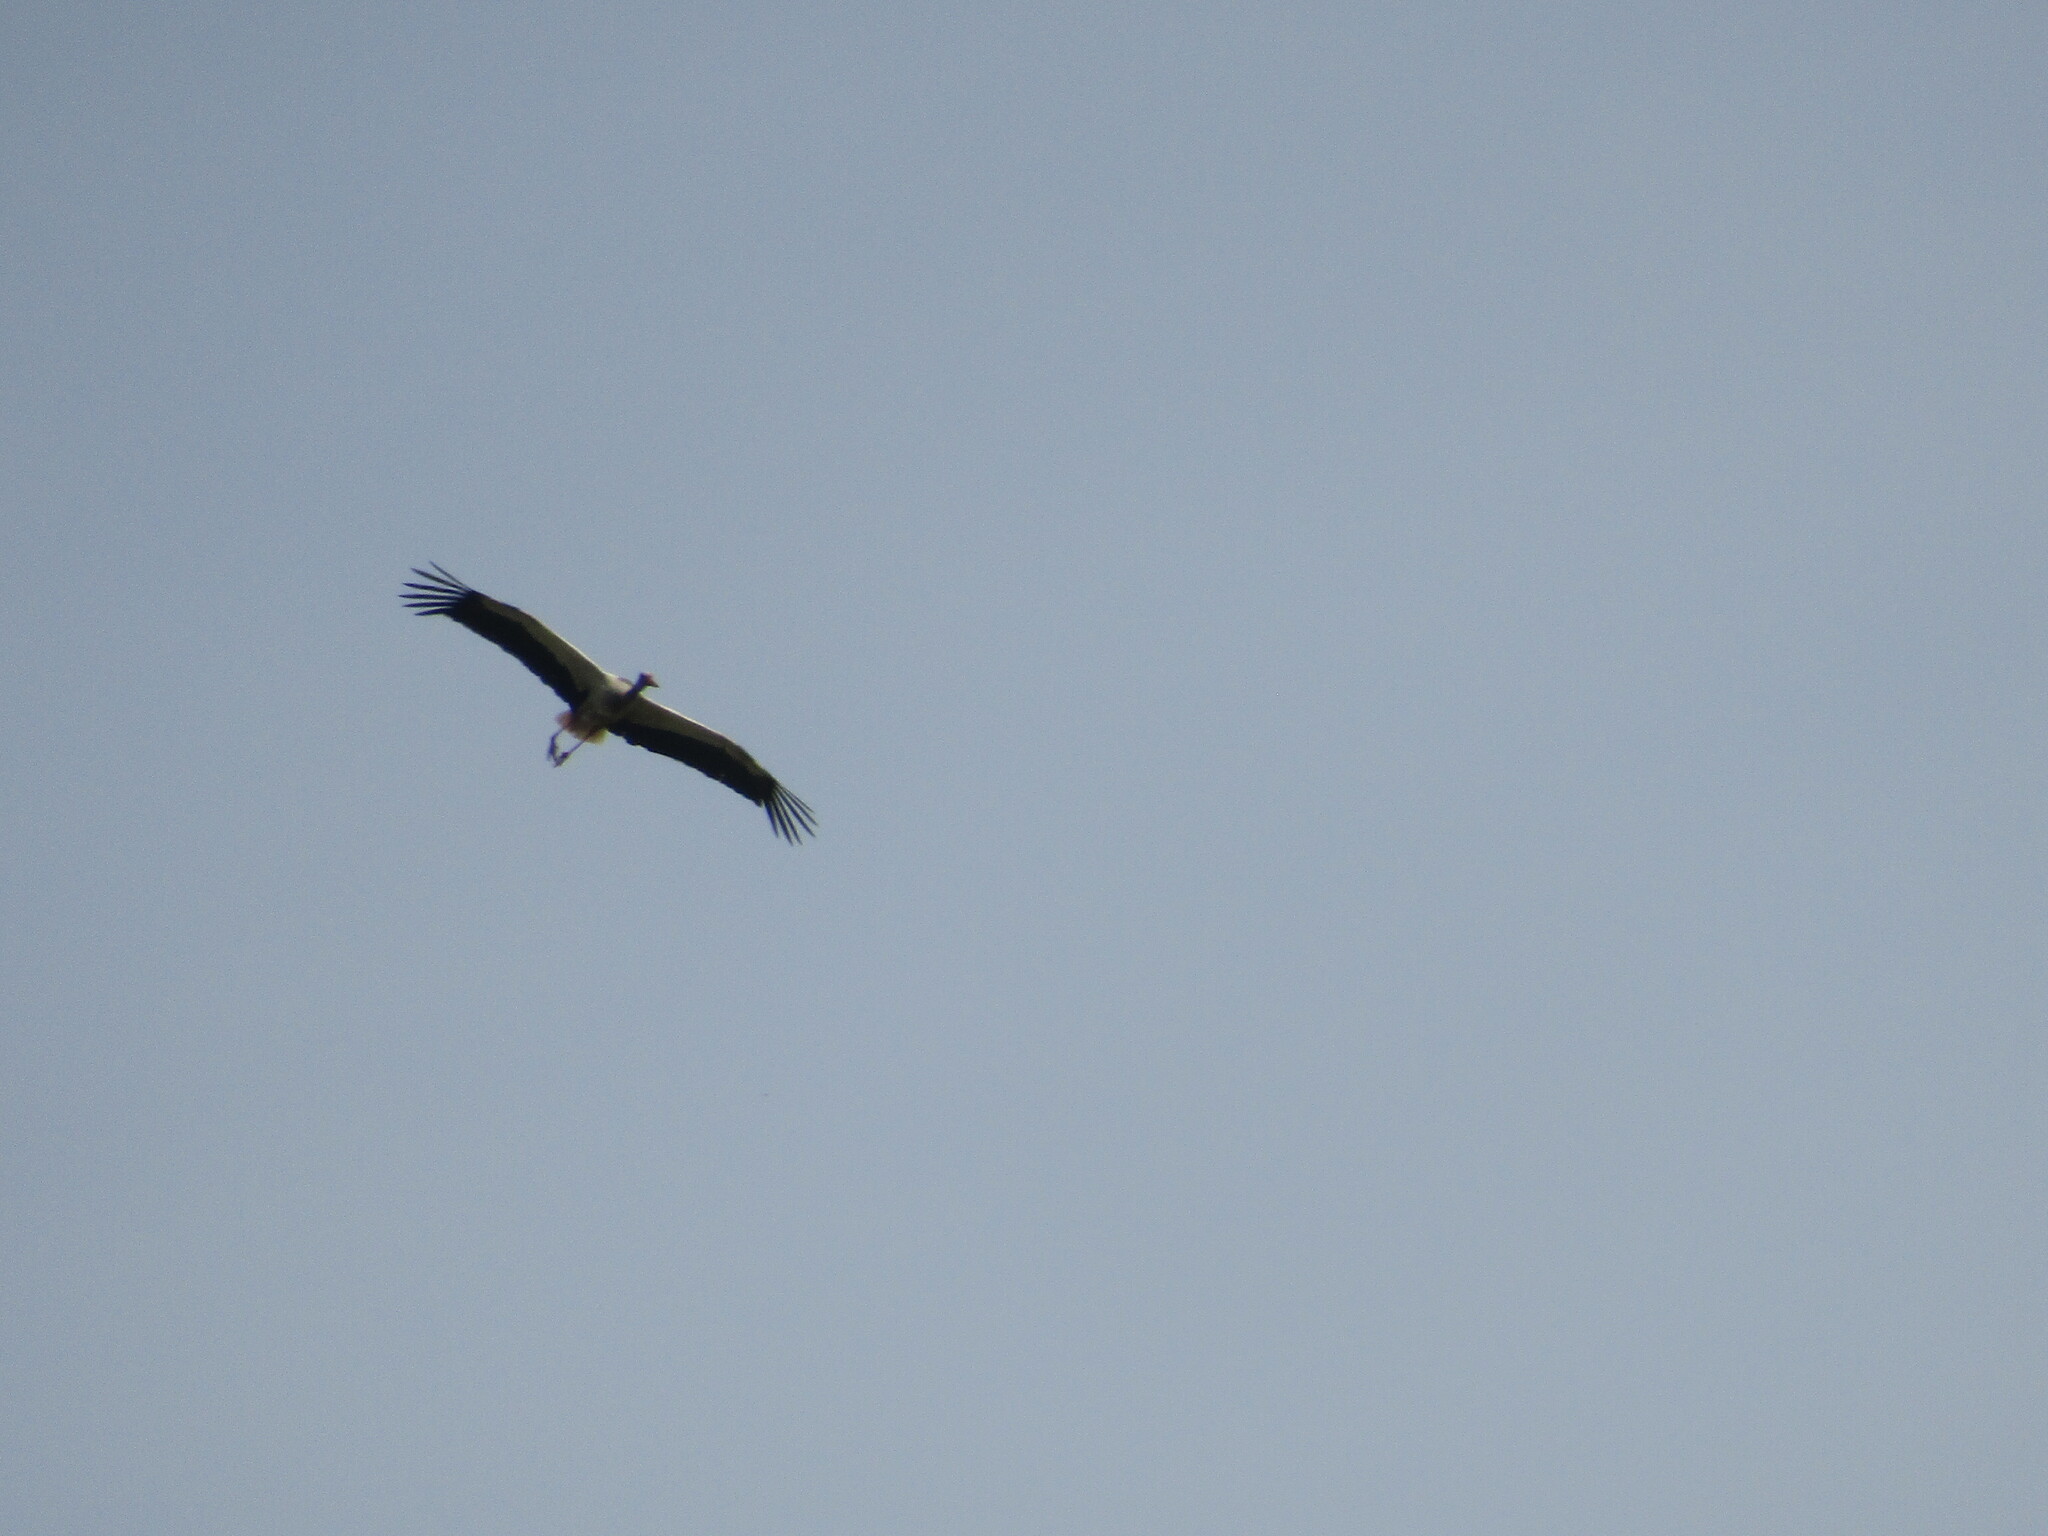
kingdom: Animalia
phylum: Chordata
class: Aves
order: Ciconiiformes
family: Ciconiidae
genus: Ciconia
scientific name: Ciconia ciconia
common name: White stork
